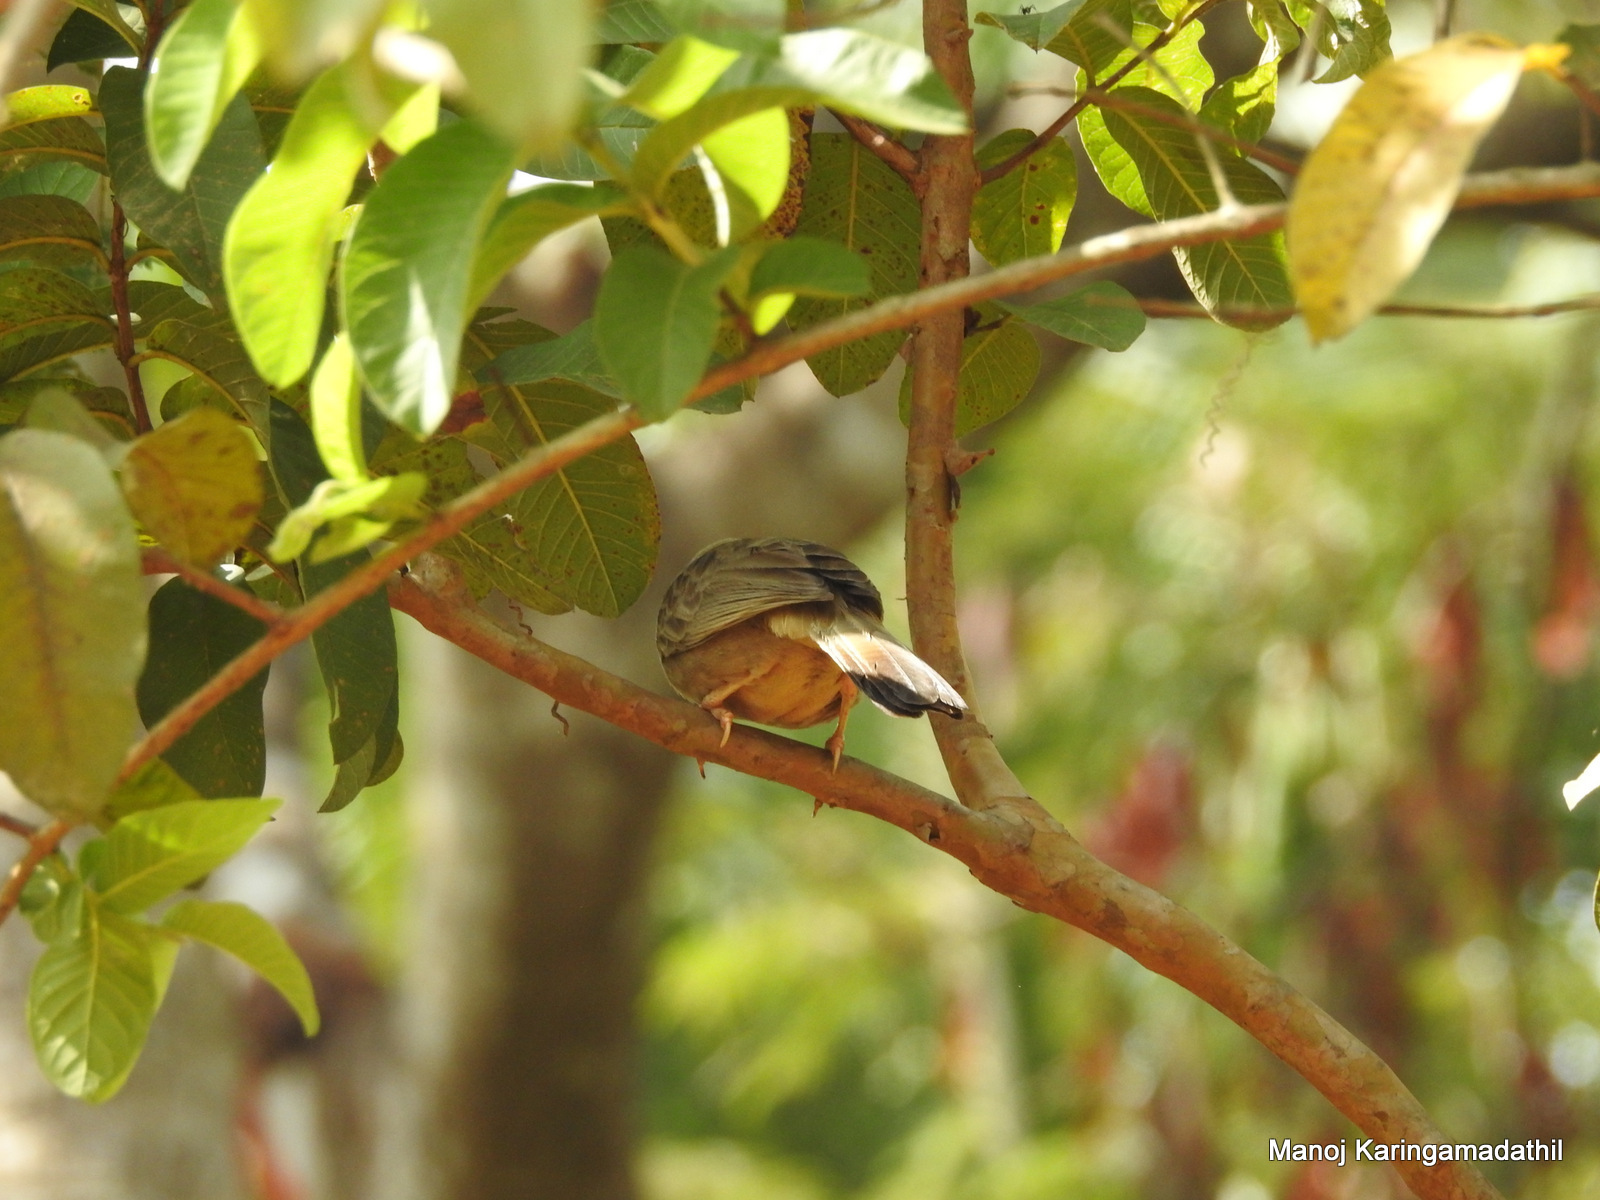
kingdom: Animalia
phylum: Chordata
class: Aves
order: Passeriformes
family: Leiothrichidae
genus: Turdoides
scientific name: Turdoides affinis
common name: Yellow-billed babbler
